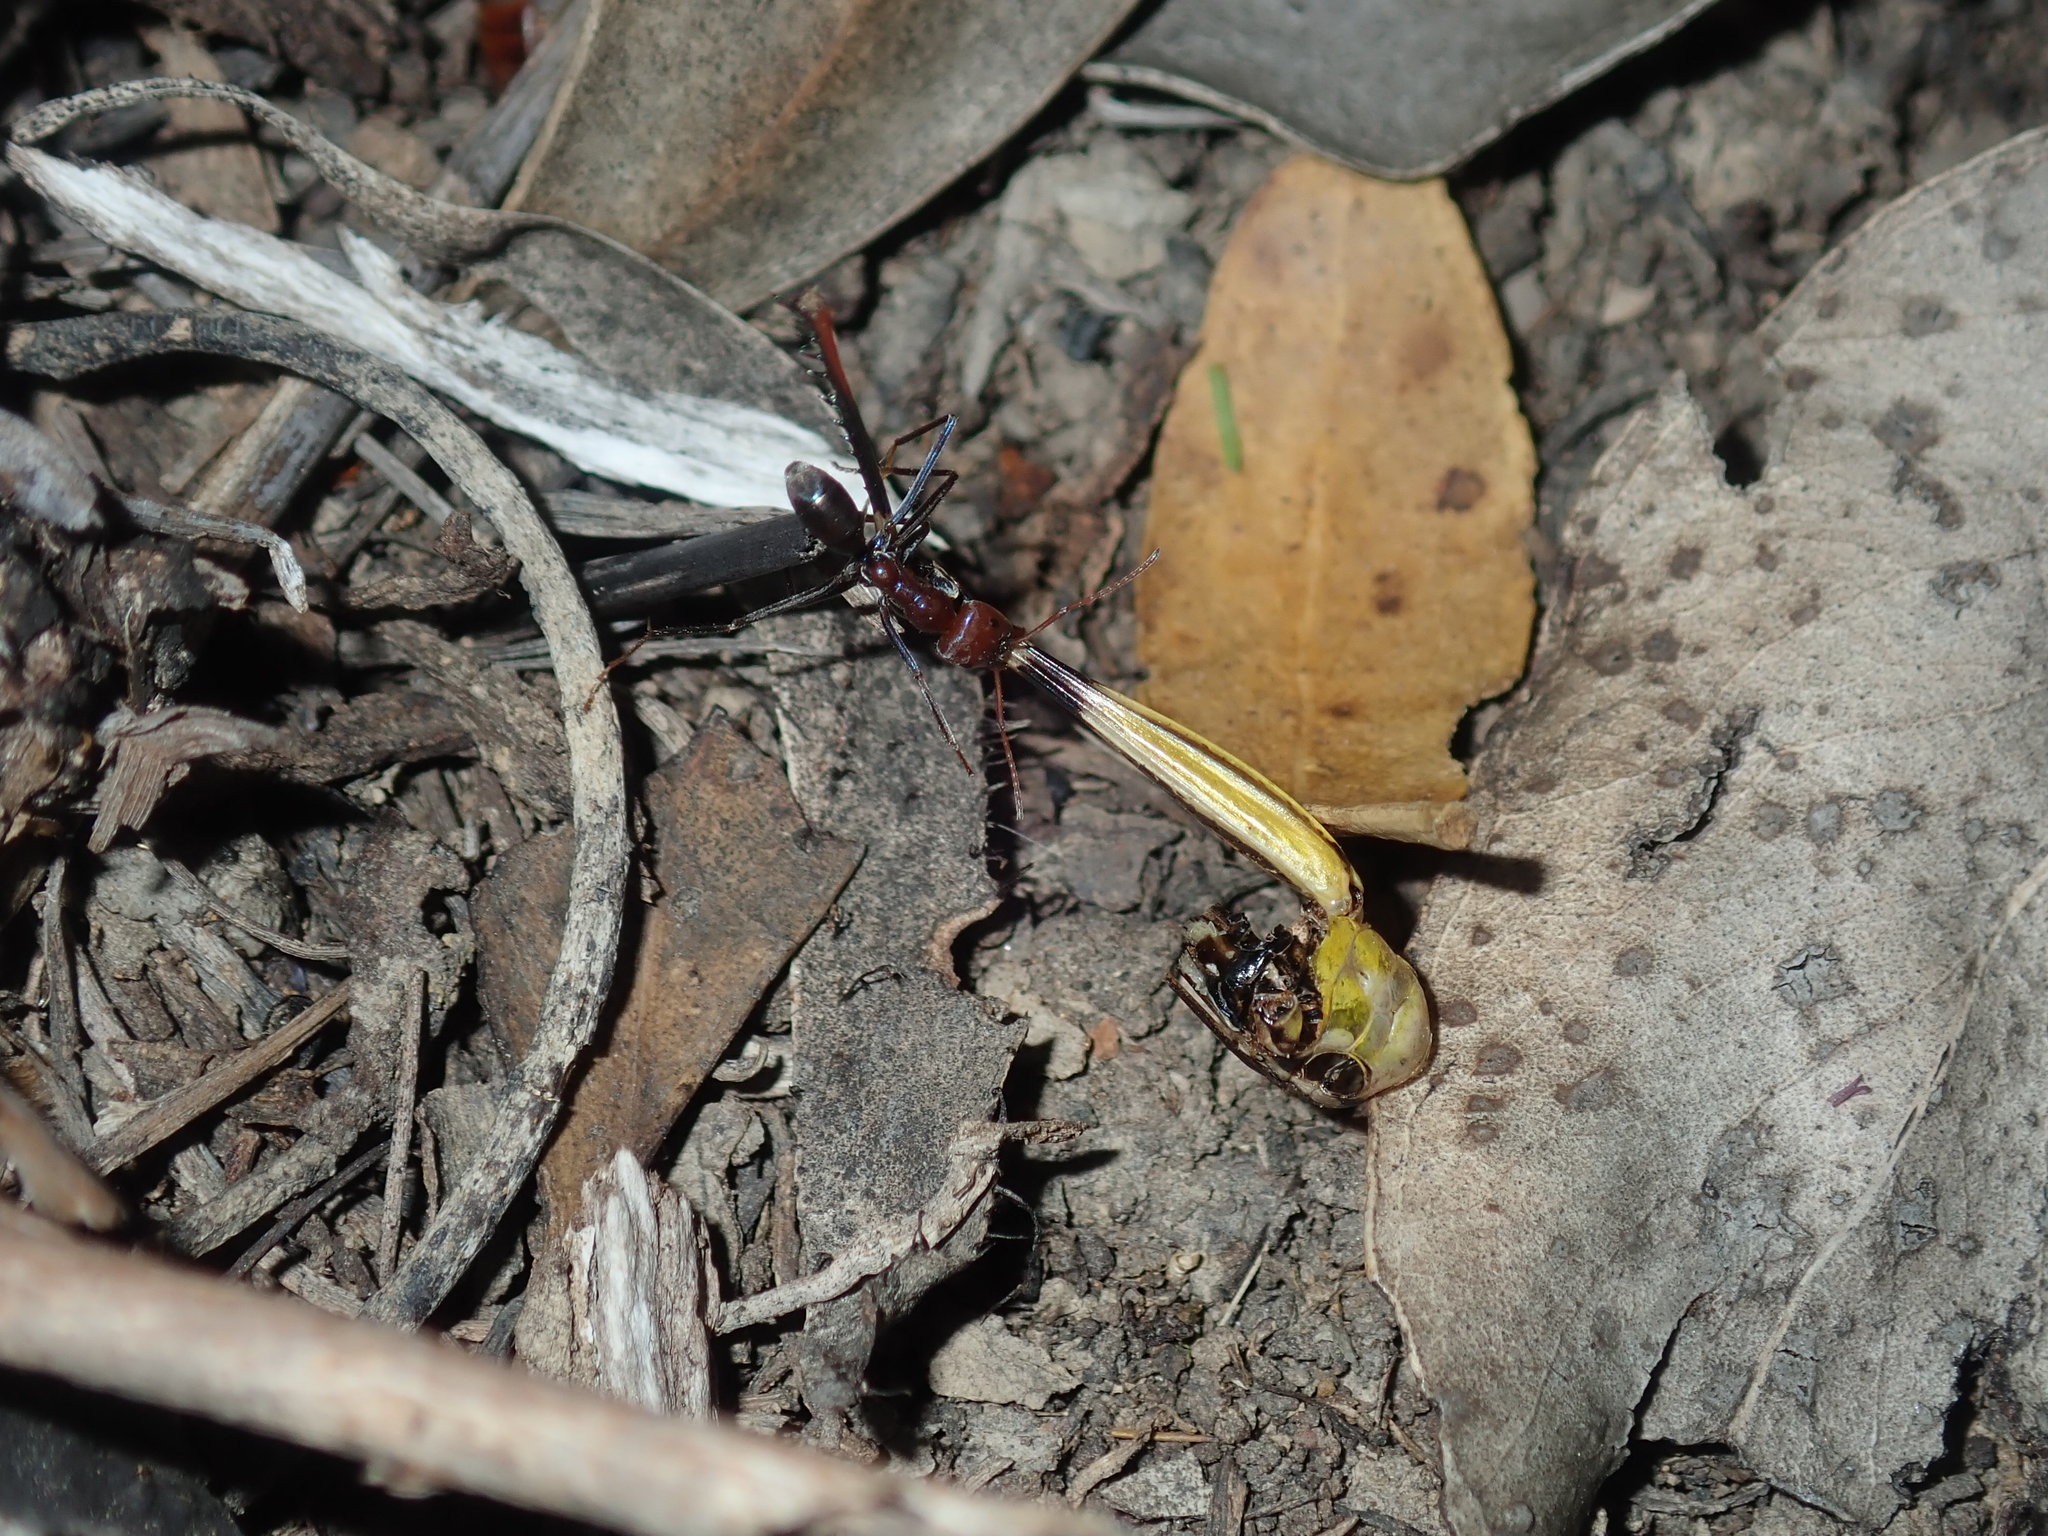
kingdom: Animalia
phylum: Arthropoda
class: Insecta
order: Hymenoptera
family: Formicidae
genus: Iridomyrmex
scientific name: Iridomyrmex purpureus
